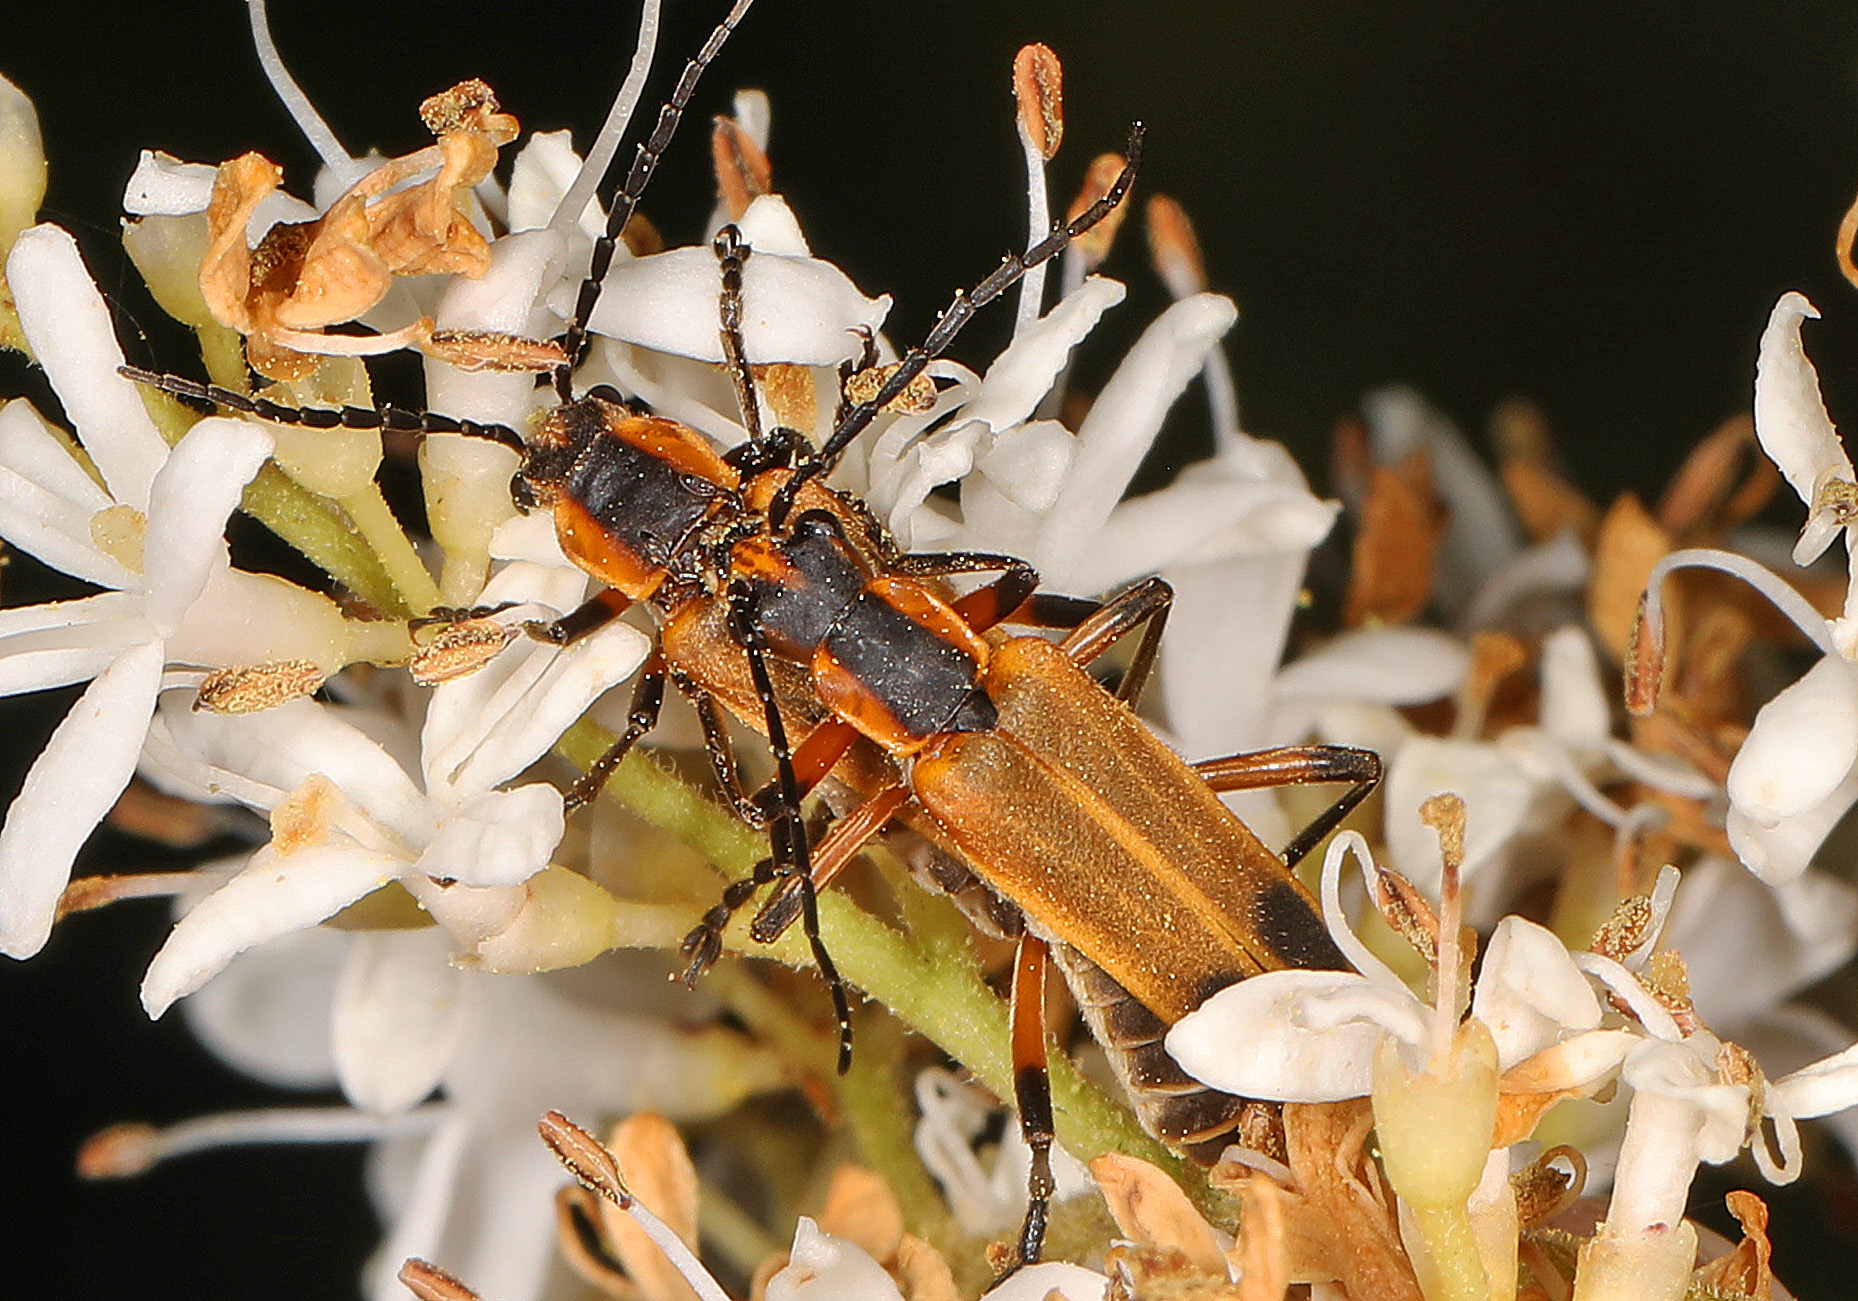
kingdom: Animalia
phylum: Arthropoda
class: Insecta
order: Coleoptera
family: Cantharidae
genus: Chauliognathus
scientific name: Chauliognathus marginatus
